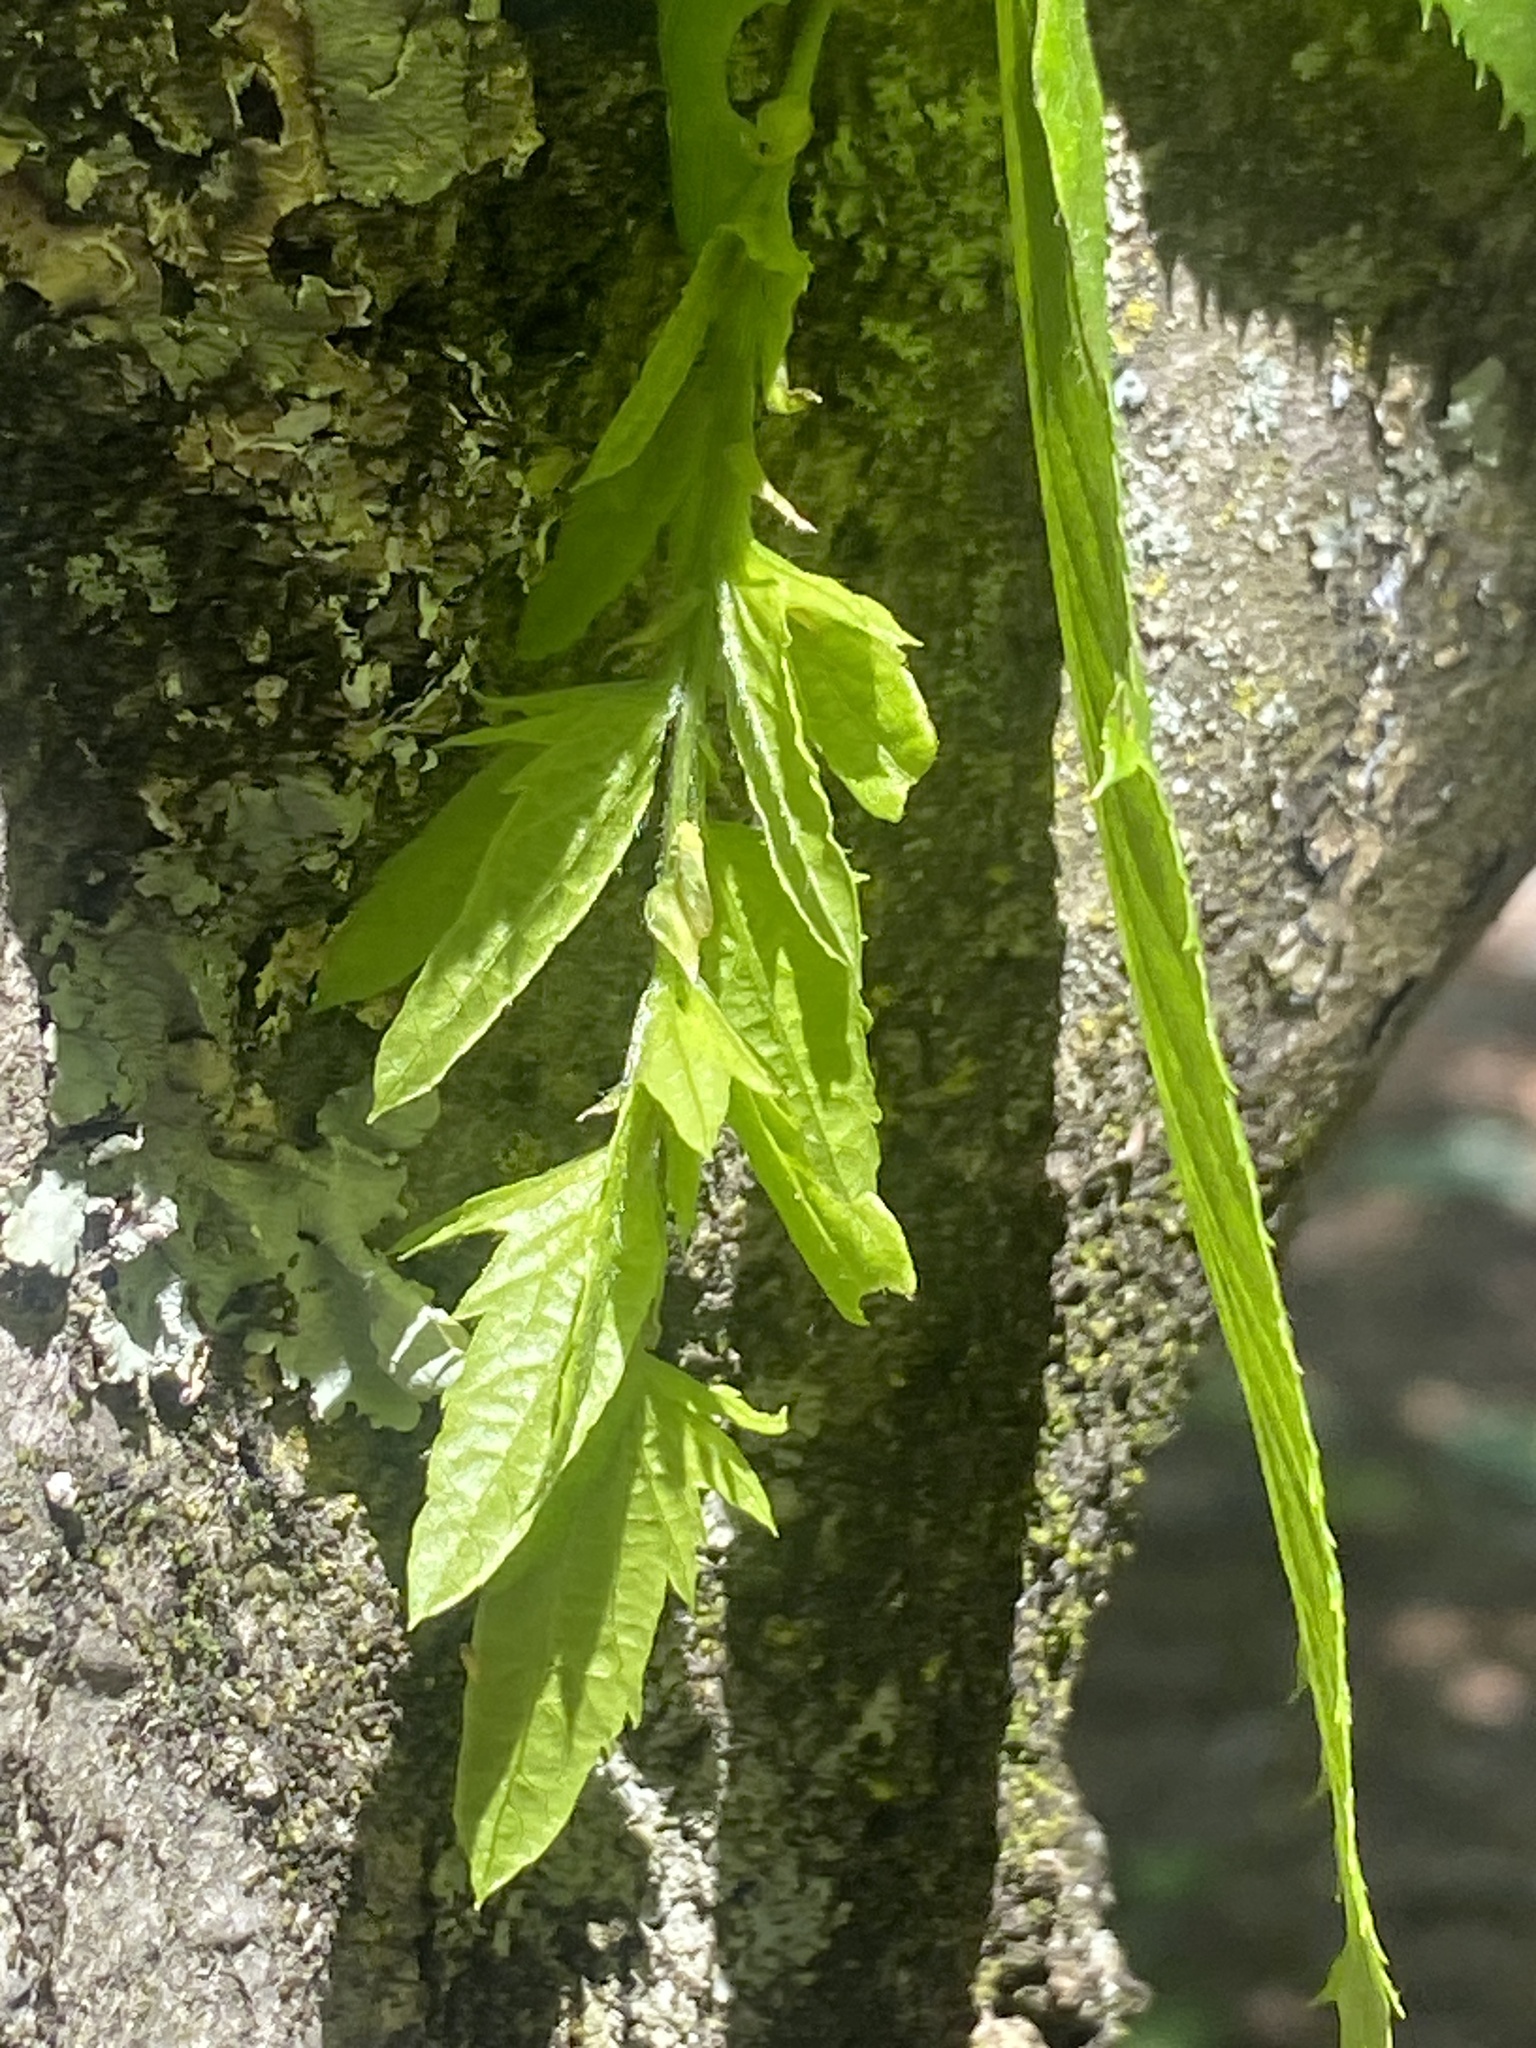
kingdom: Plantae
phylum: Tracheophyta
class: Magnoliopsida
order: Fagales
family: Betulaceae
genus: Carpinus
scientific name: Carpinus caroliniana
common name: American hornbeam
